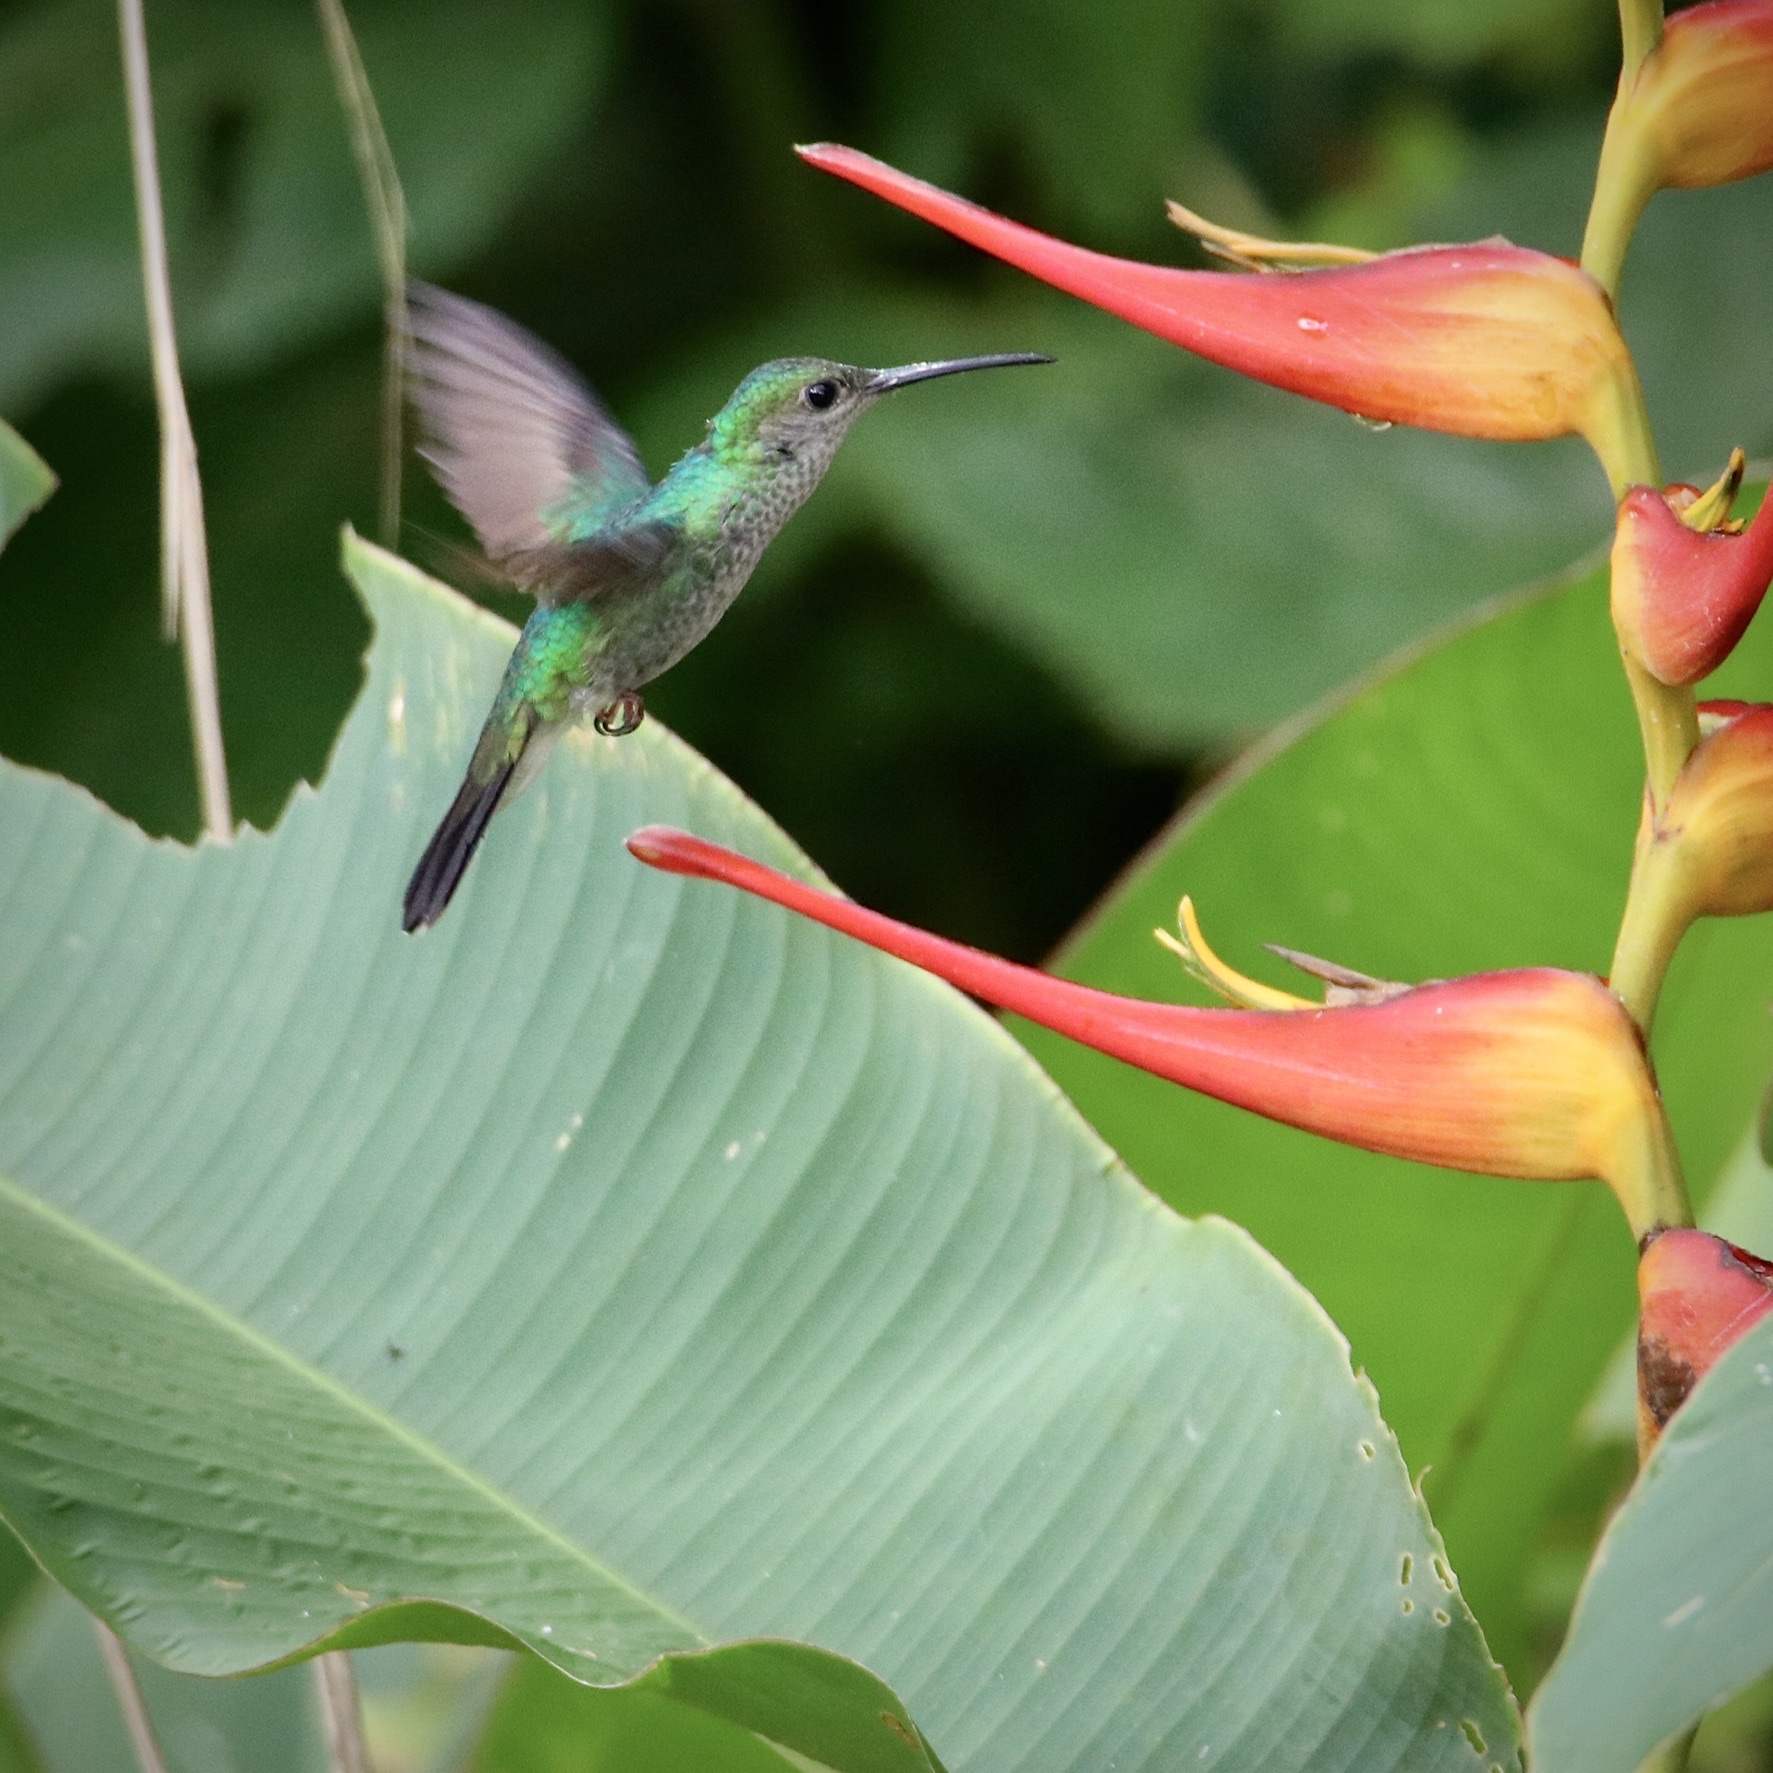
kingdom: Animalia
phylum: Chordata
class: Aves
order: Apodiformes
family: Trochilidae
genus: Chalybura
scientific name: Chalybura buffonii
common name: White-vented plumeleteer
